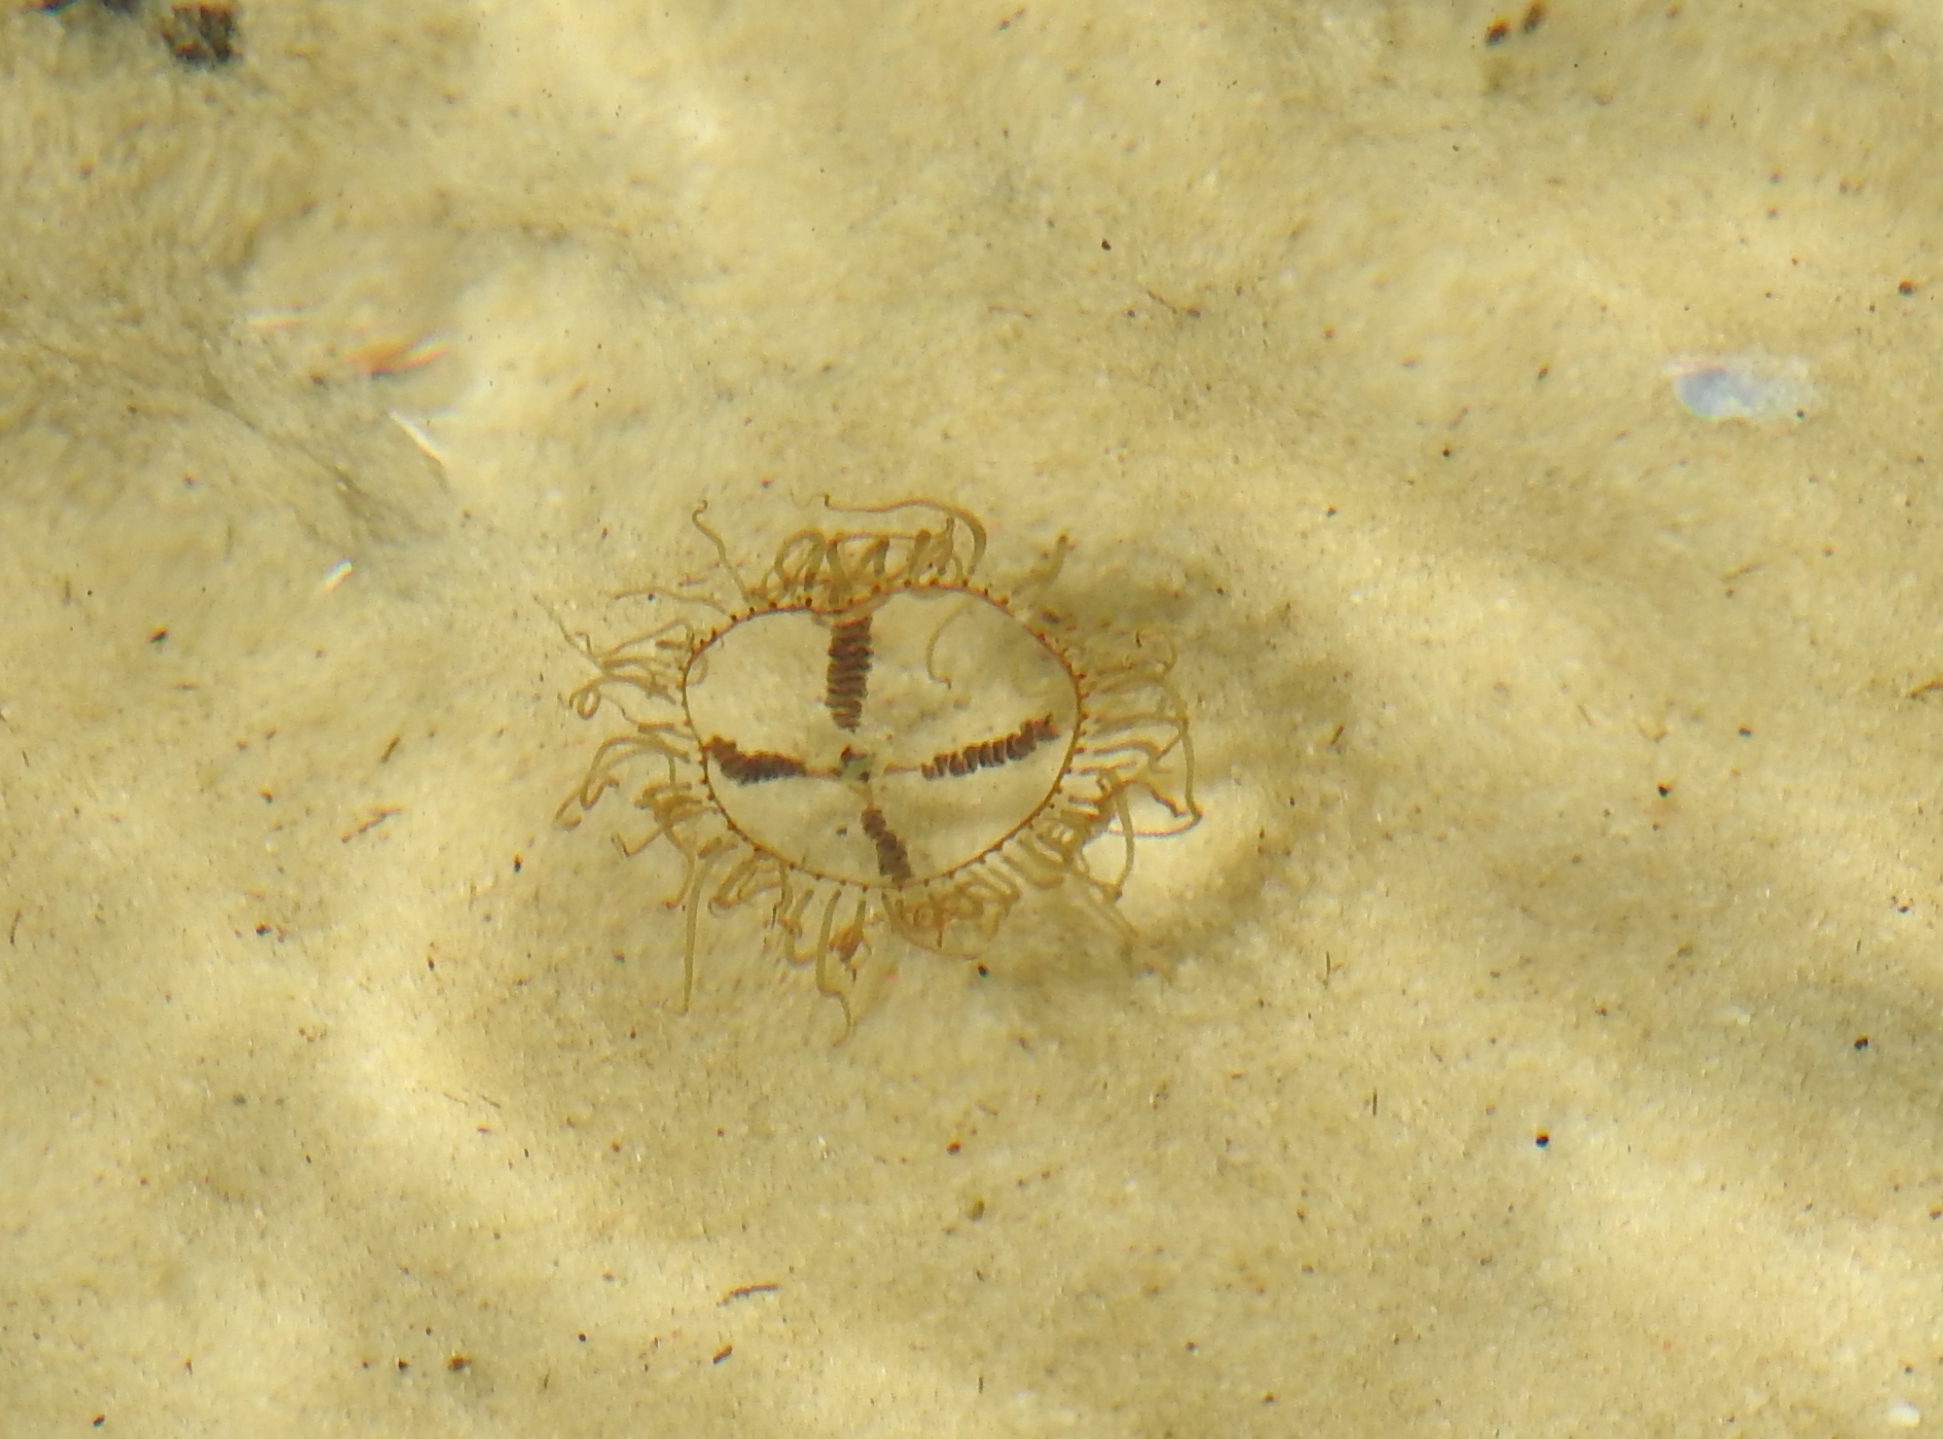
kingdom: Animalia
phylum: Cnidaria
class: Hydrozoa
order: Limnomedusae
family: Olindiidae
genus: Olindias
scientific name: Olindias muelleri
